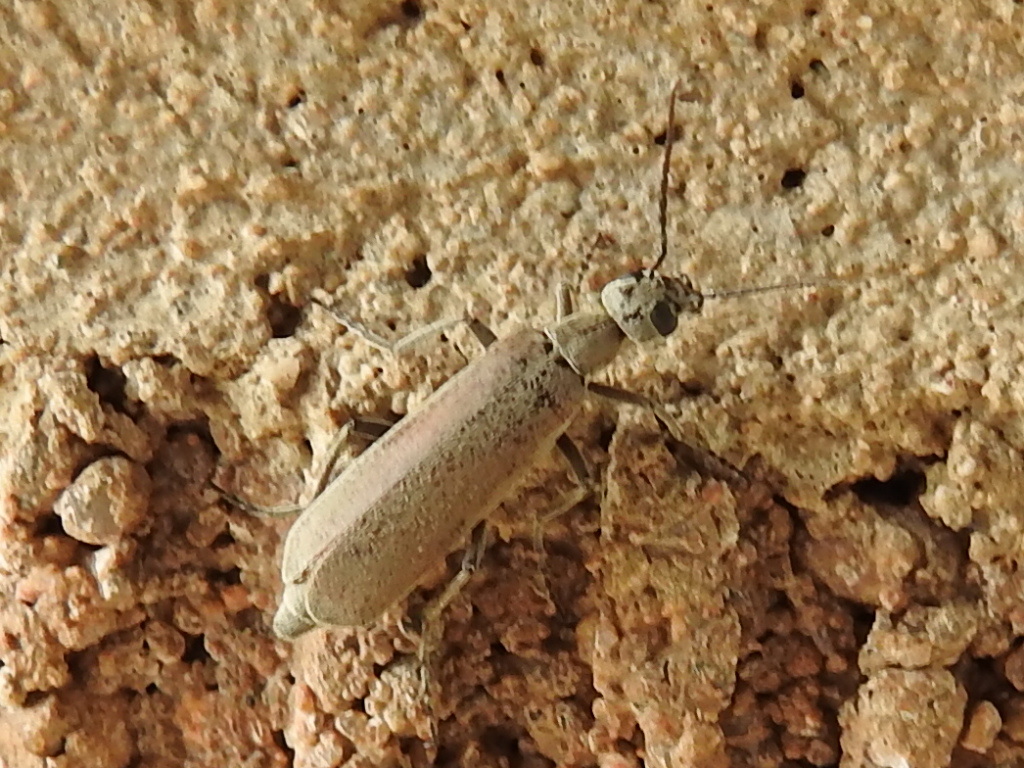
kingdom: Animalia
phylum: Arthropoda
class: Insecta
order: Coleoptera
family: Meloidae
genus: Epicauta
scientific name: Epicauta arizonica
